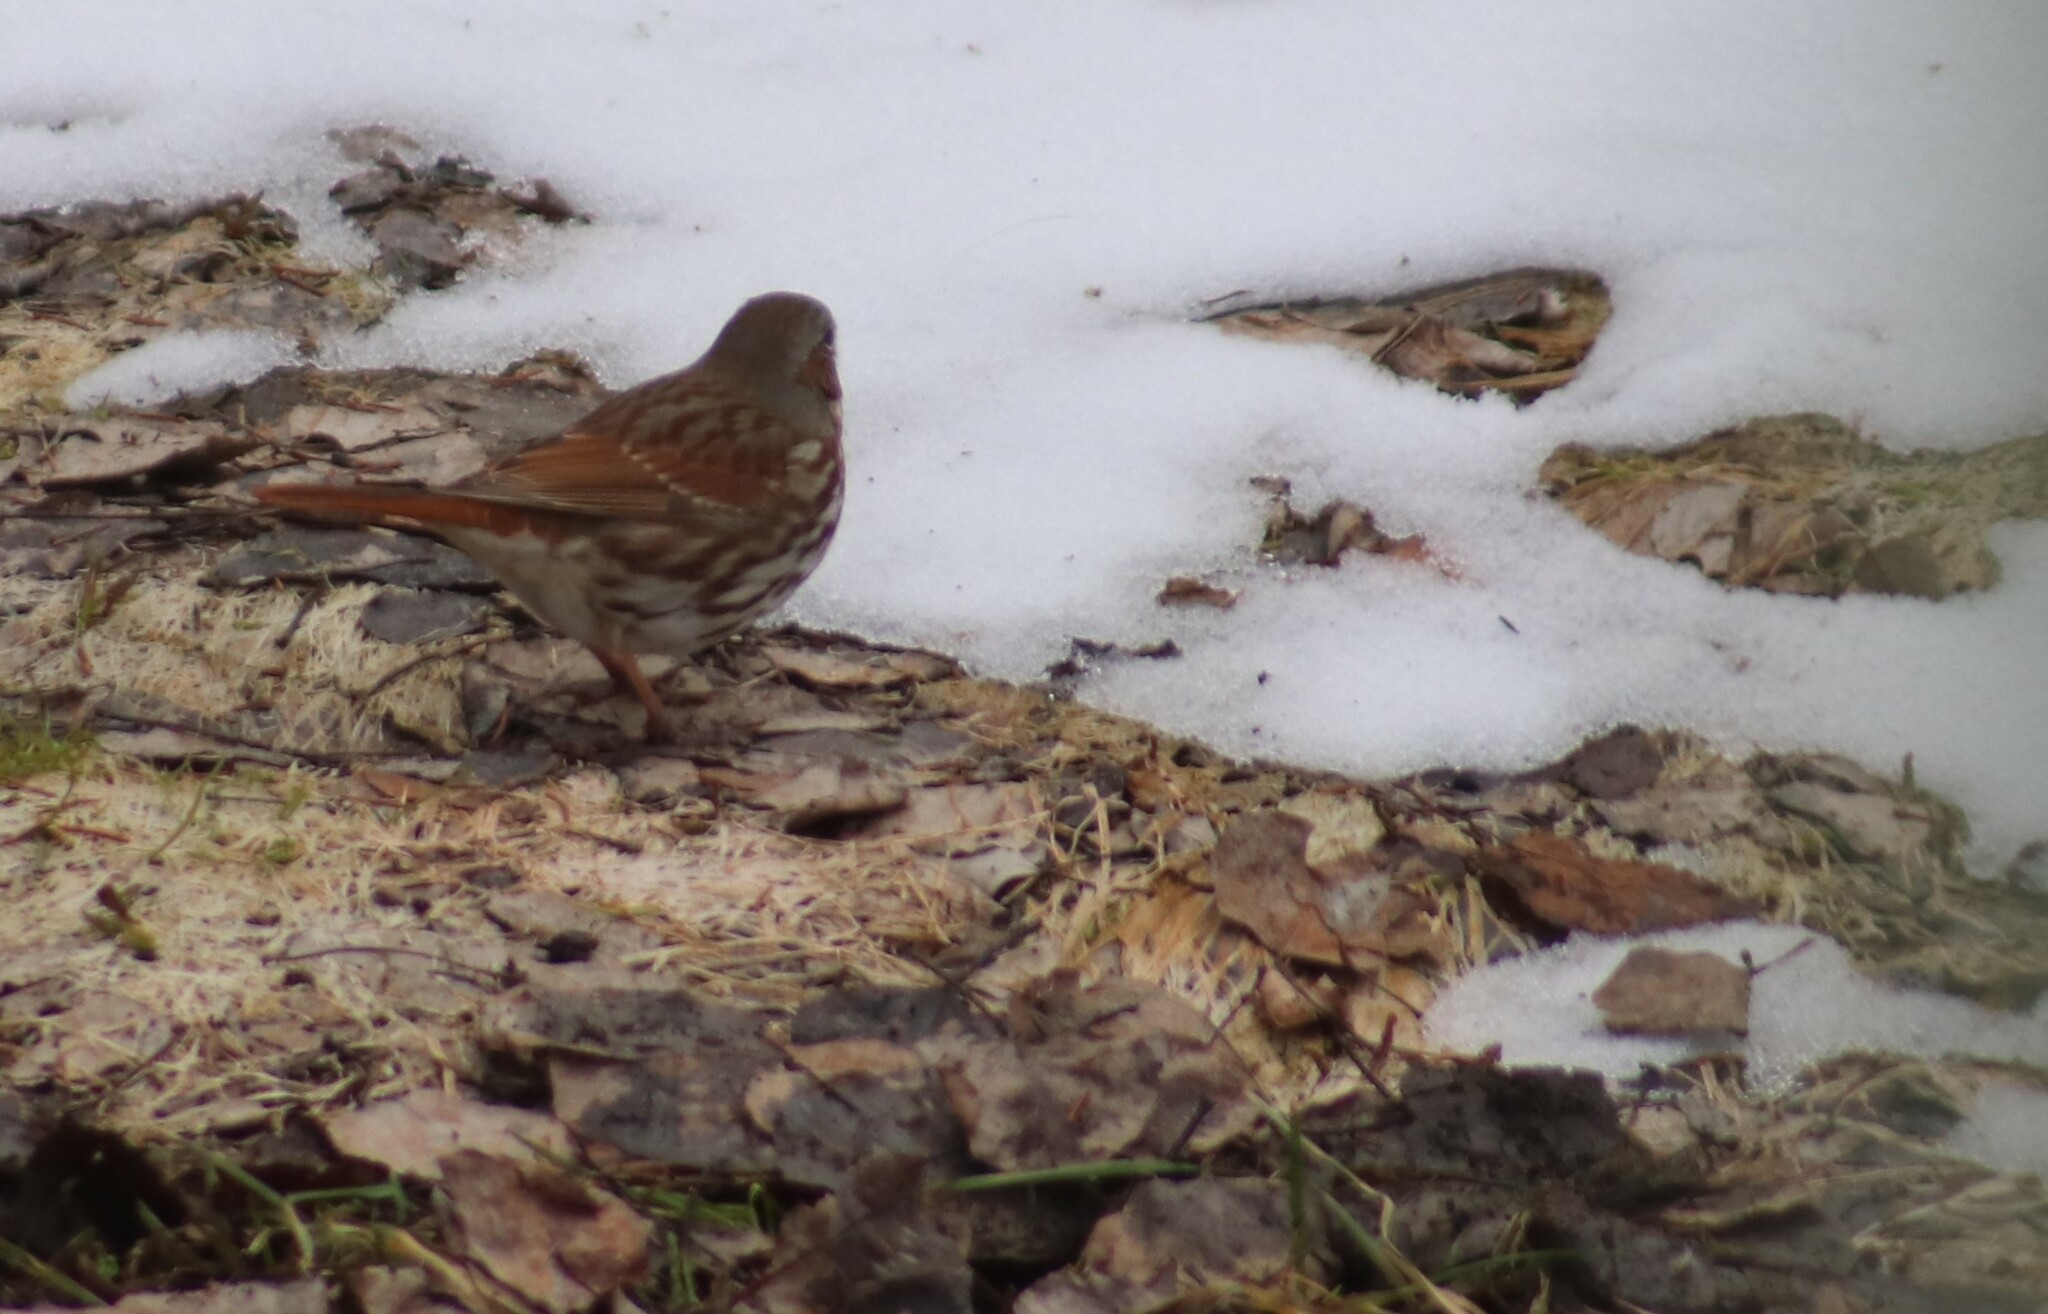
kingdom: Animalia
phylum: Chordata
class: Aves
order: Passeriformes
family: Passerellidae
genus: Passerella
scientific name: Passerella iliaca
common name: Fox sparrow
